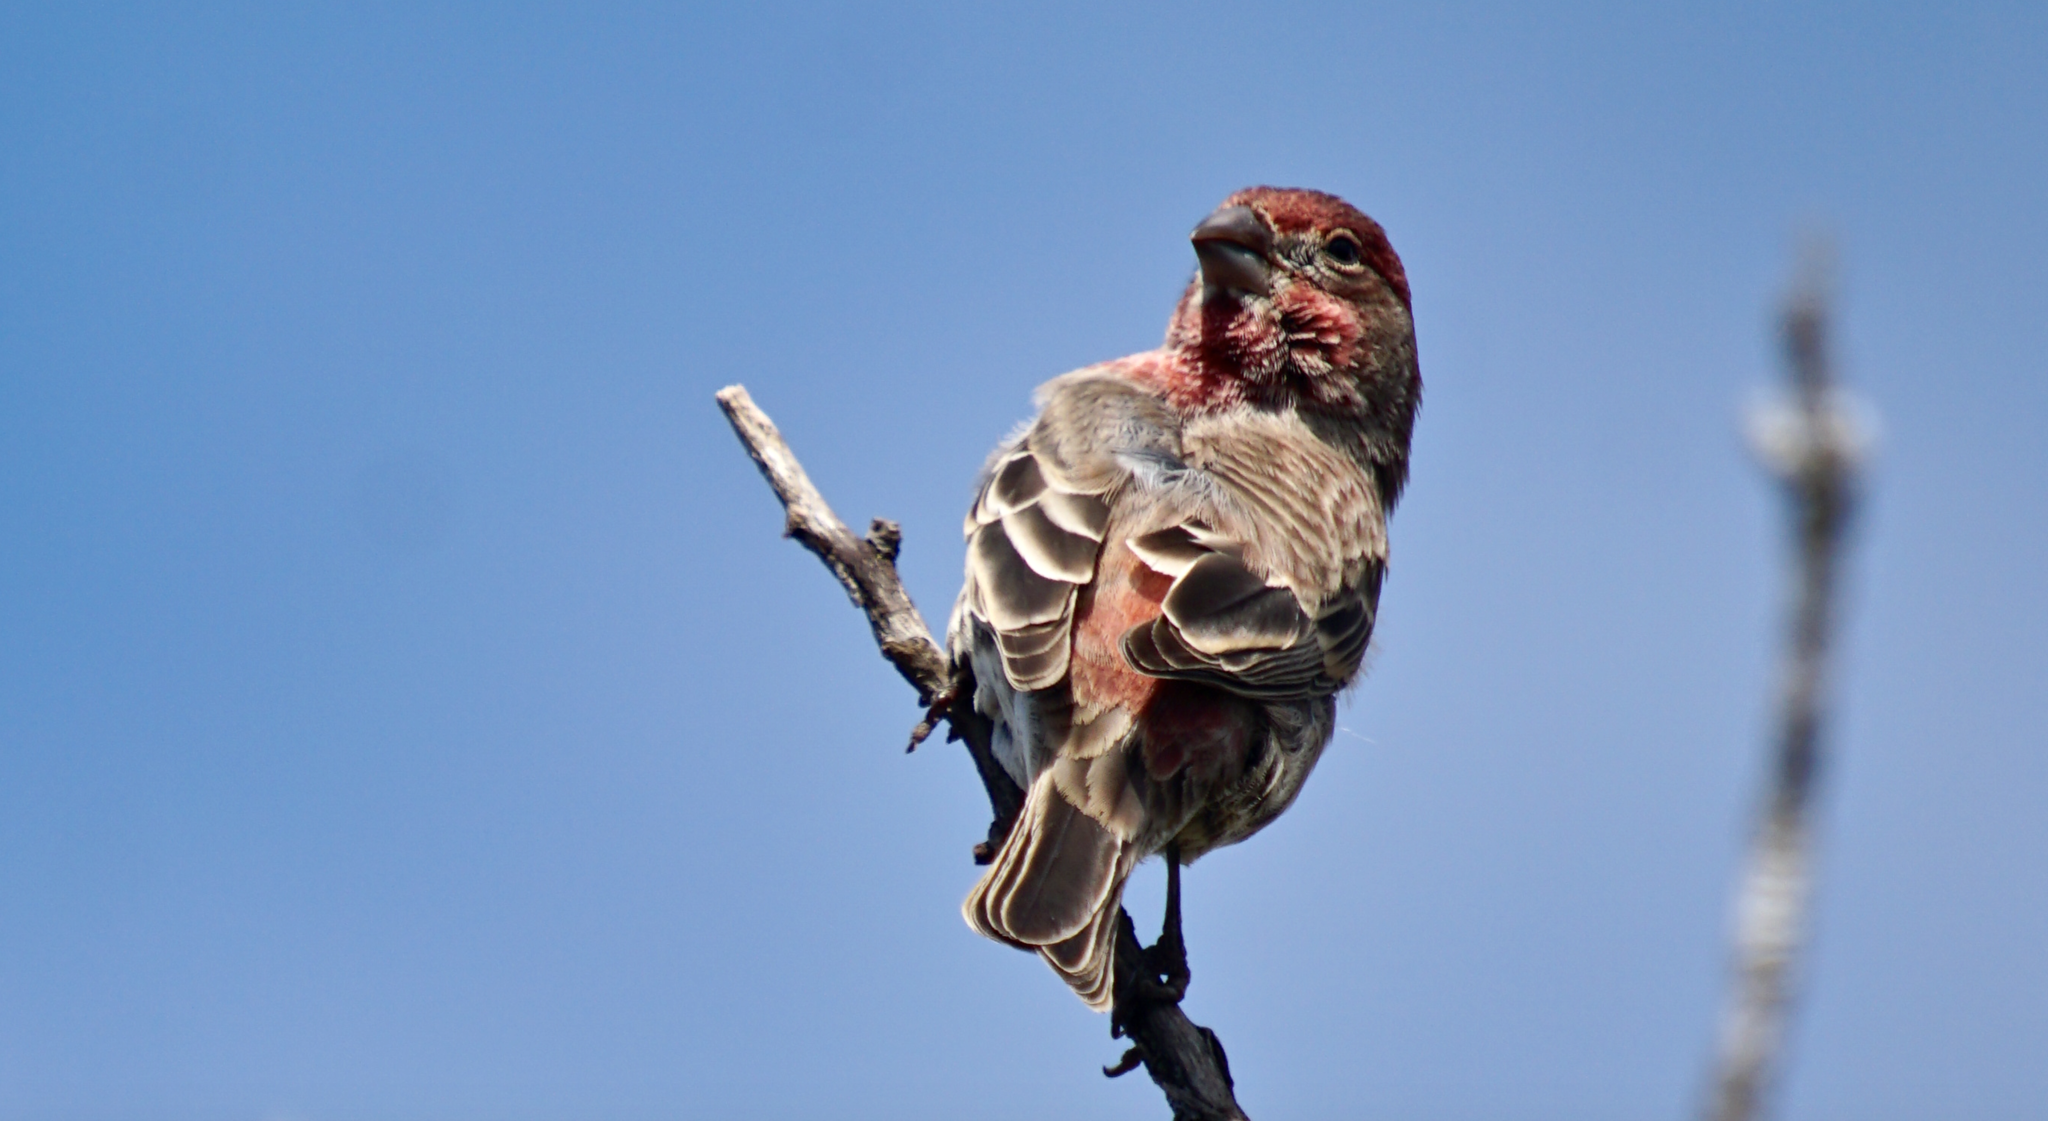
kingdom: Animalia
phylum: Chordata
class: Aves
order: Passeriformes
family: Fringillidae
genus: Haemorhous
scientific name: Haemorhous mexicanus
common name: House finch
